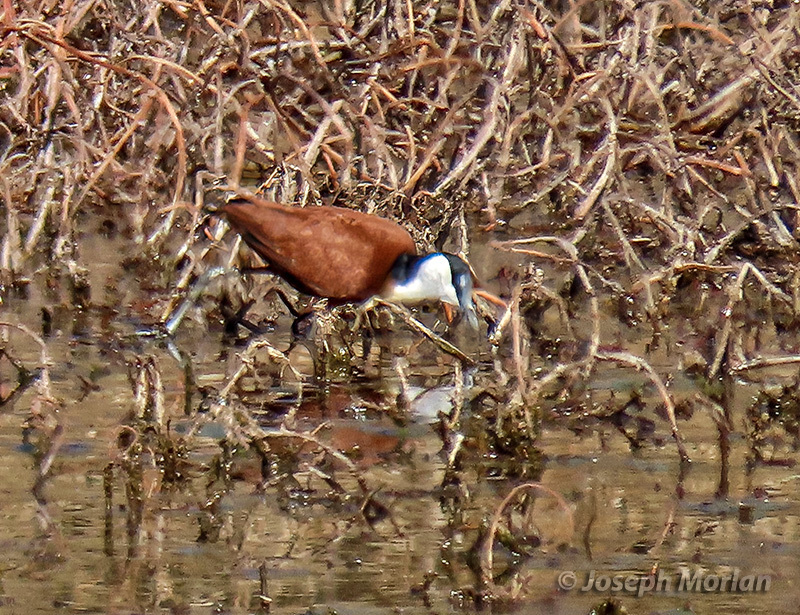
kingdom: Animalia
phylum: Chordata
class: Aves
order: Charadriiformes
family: Jacanidae
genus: Actophilornis
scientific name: Actophilornis africanus
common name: African jacana
